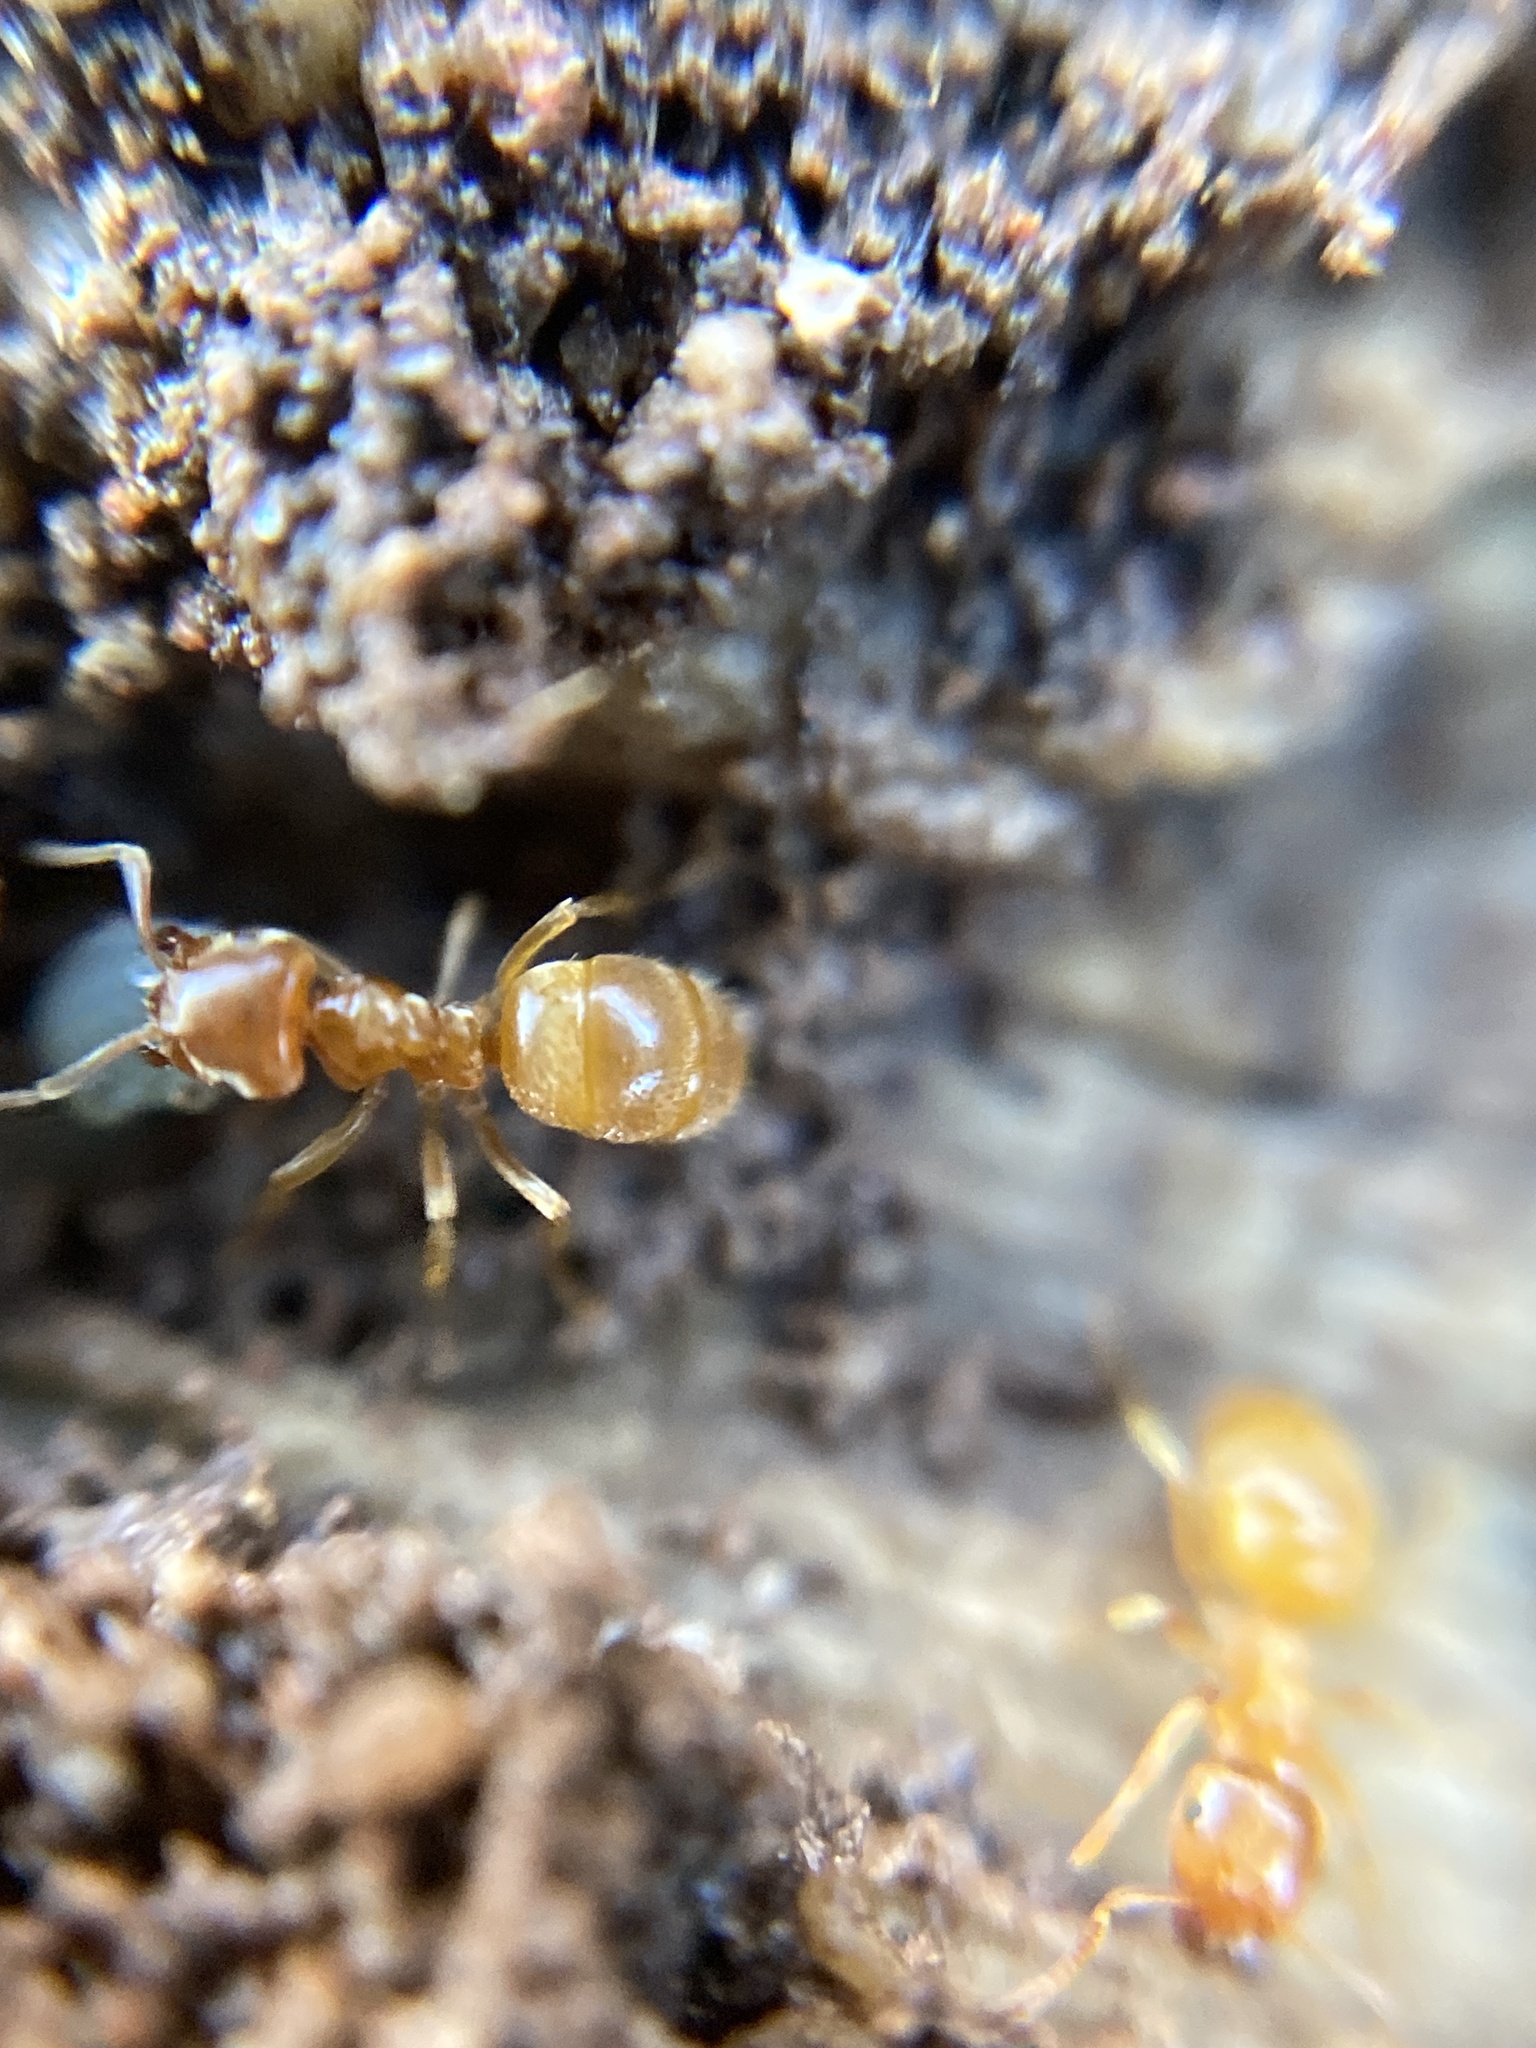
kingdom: Animalia
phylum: Arthropoda
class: Insecta
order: Hymenoptera
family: Formicidae
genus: Lasius
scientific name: Lasius flavus
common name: Blond field ant
